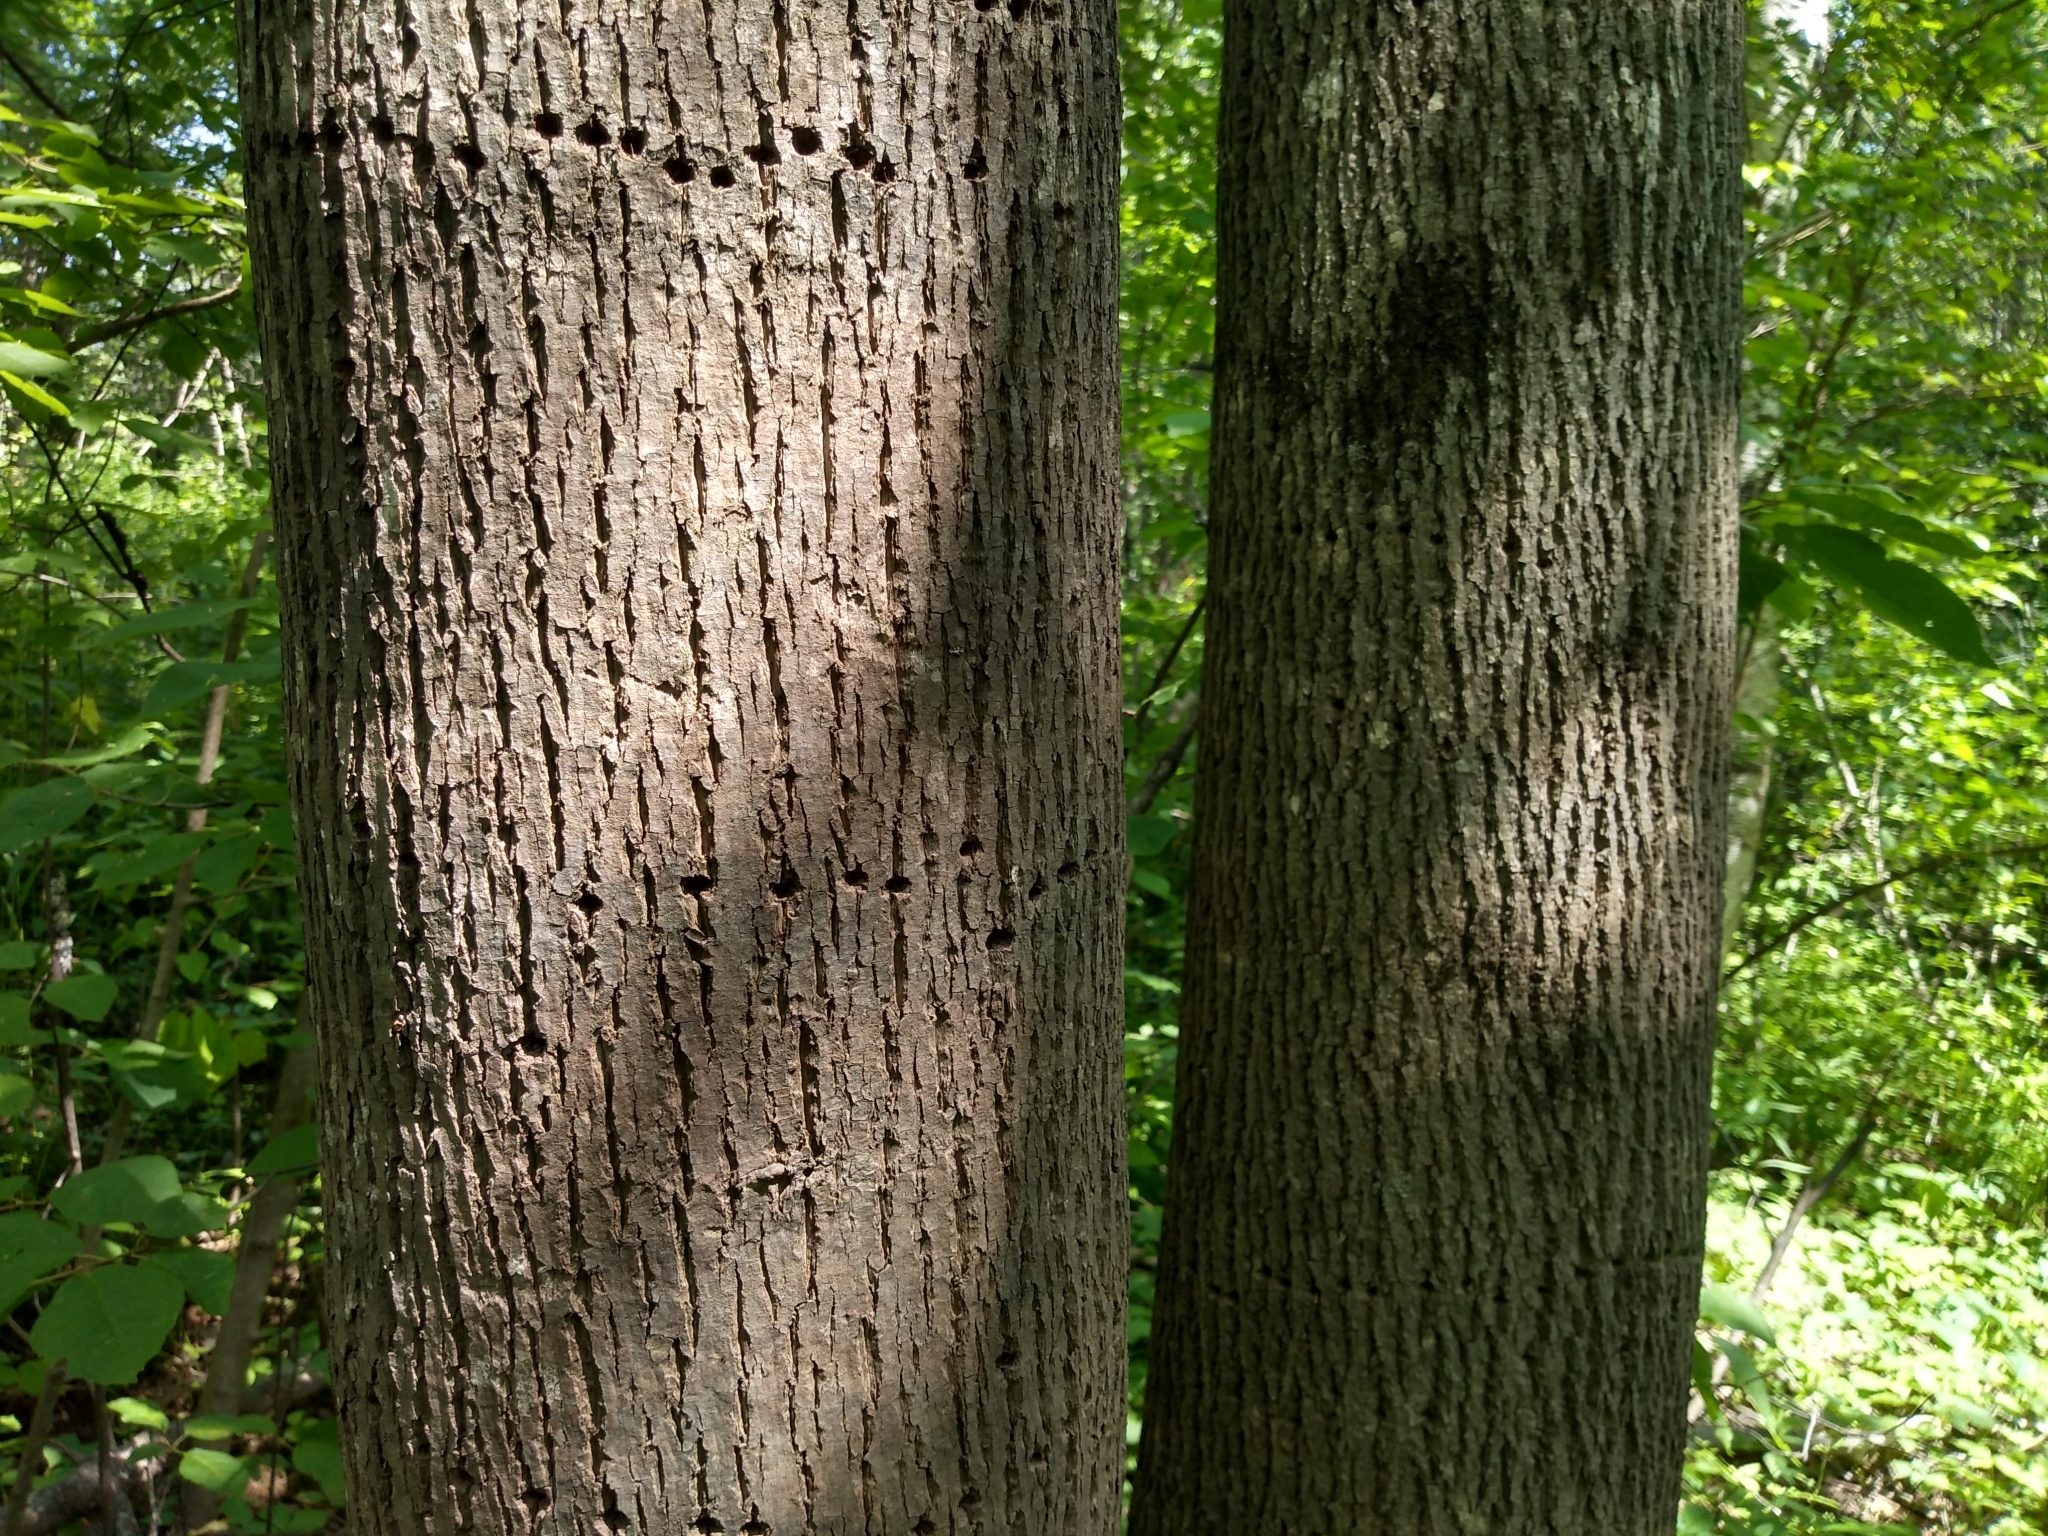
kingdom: Plantae
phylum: Tracheophyta
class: Magnoliopsida
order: Malvales
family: Malvaceae
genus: Tilia
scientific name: Tilia americana
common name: Basswood
